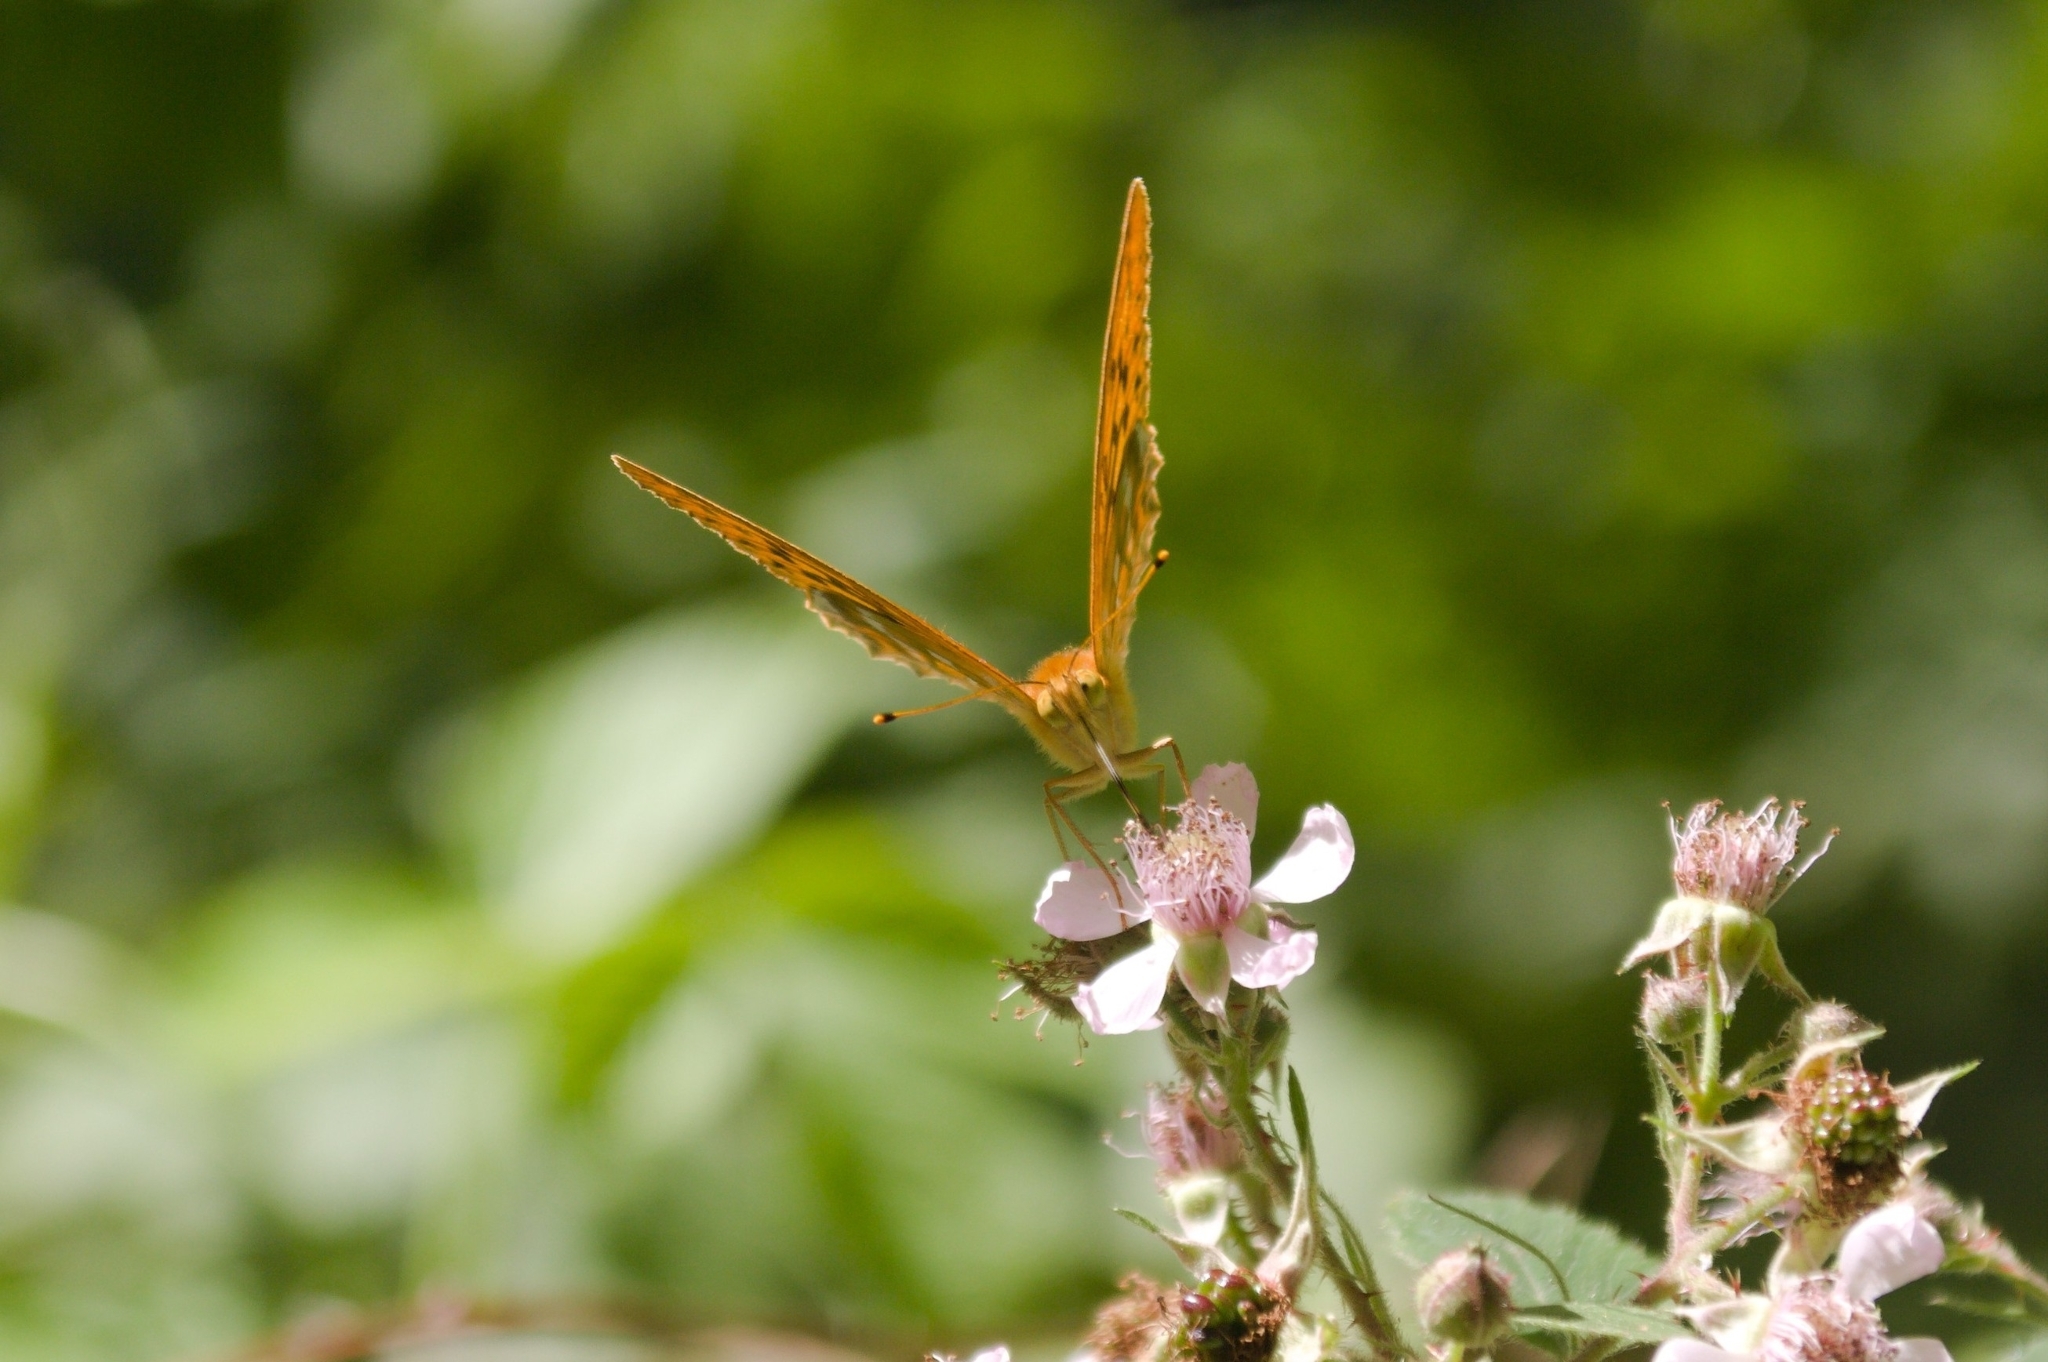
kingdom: Animalia
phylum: Arthropoda
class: Insecta
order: Lepidoptera
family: Nymphalidae
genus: Argynnis
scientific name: Argynnis paphia
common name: Silver-washed fritillary
